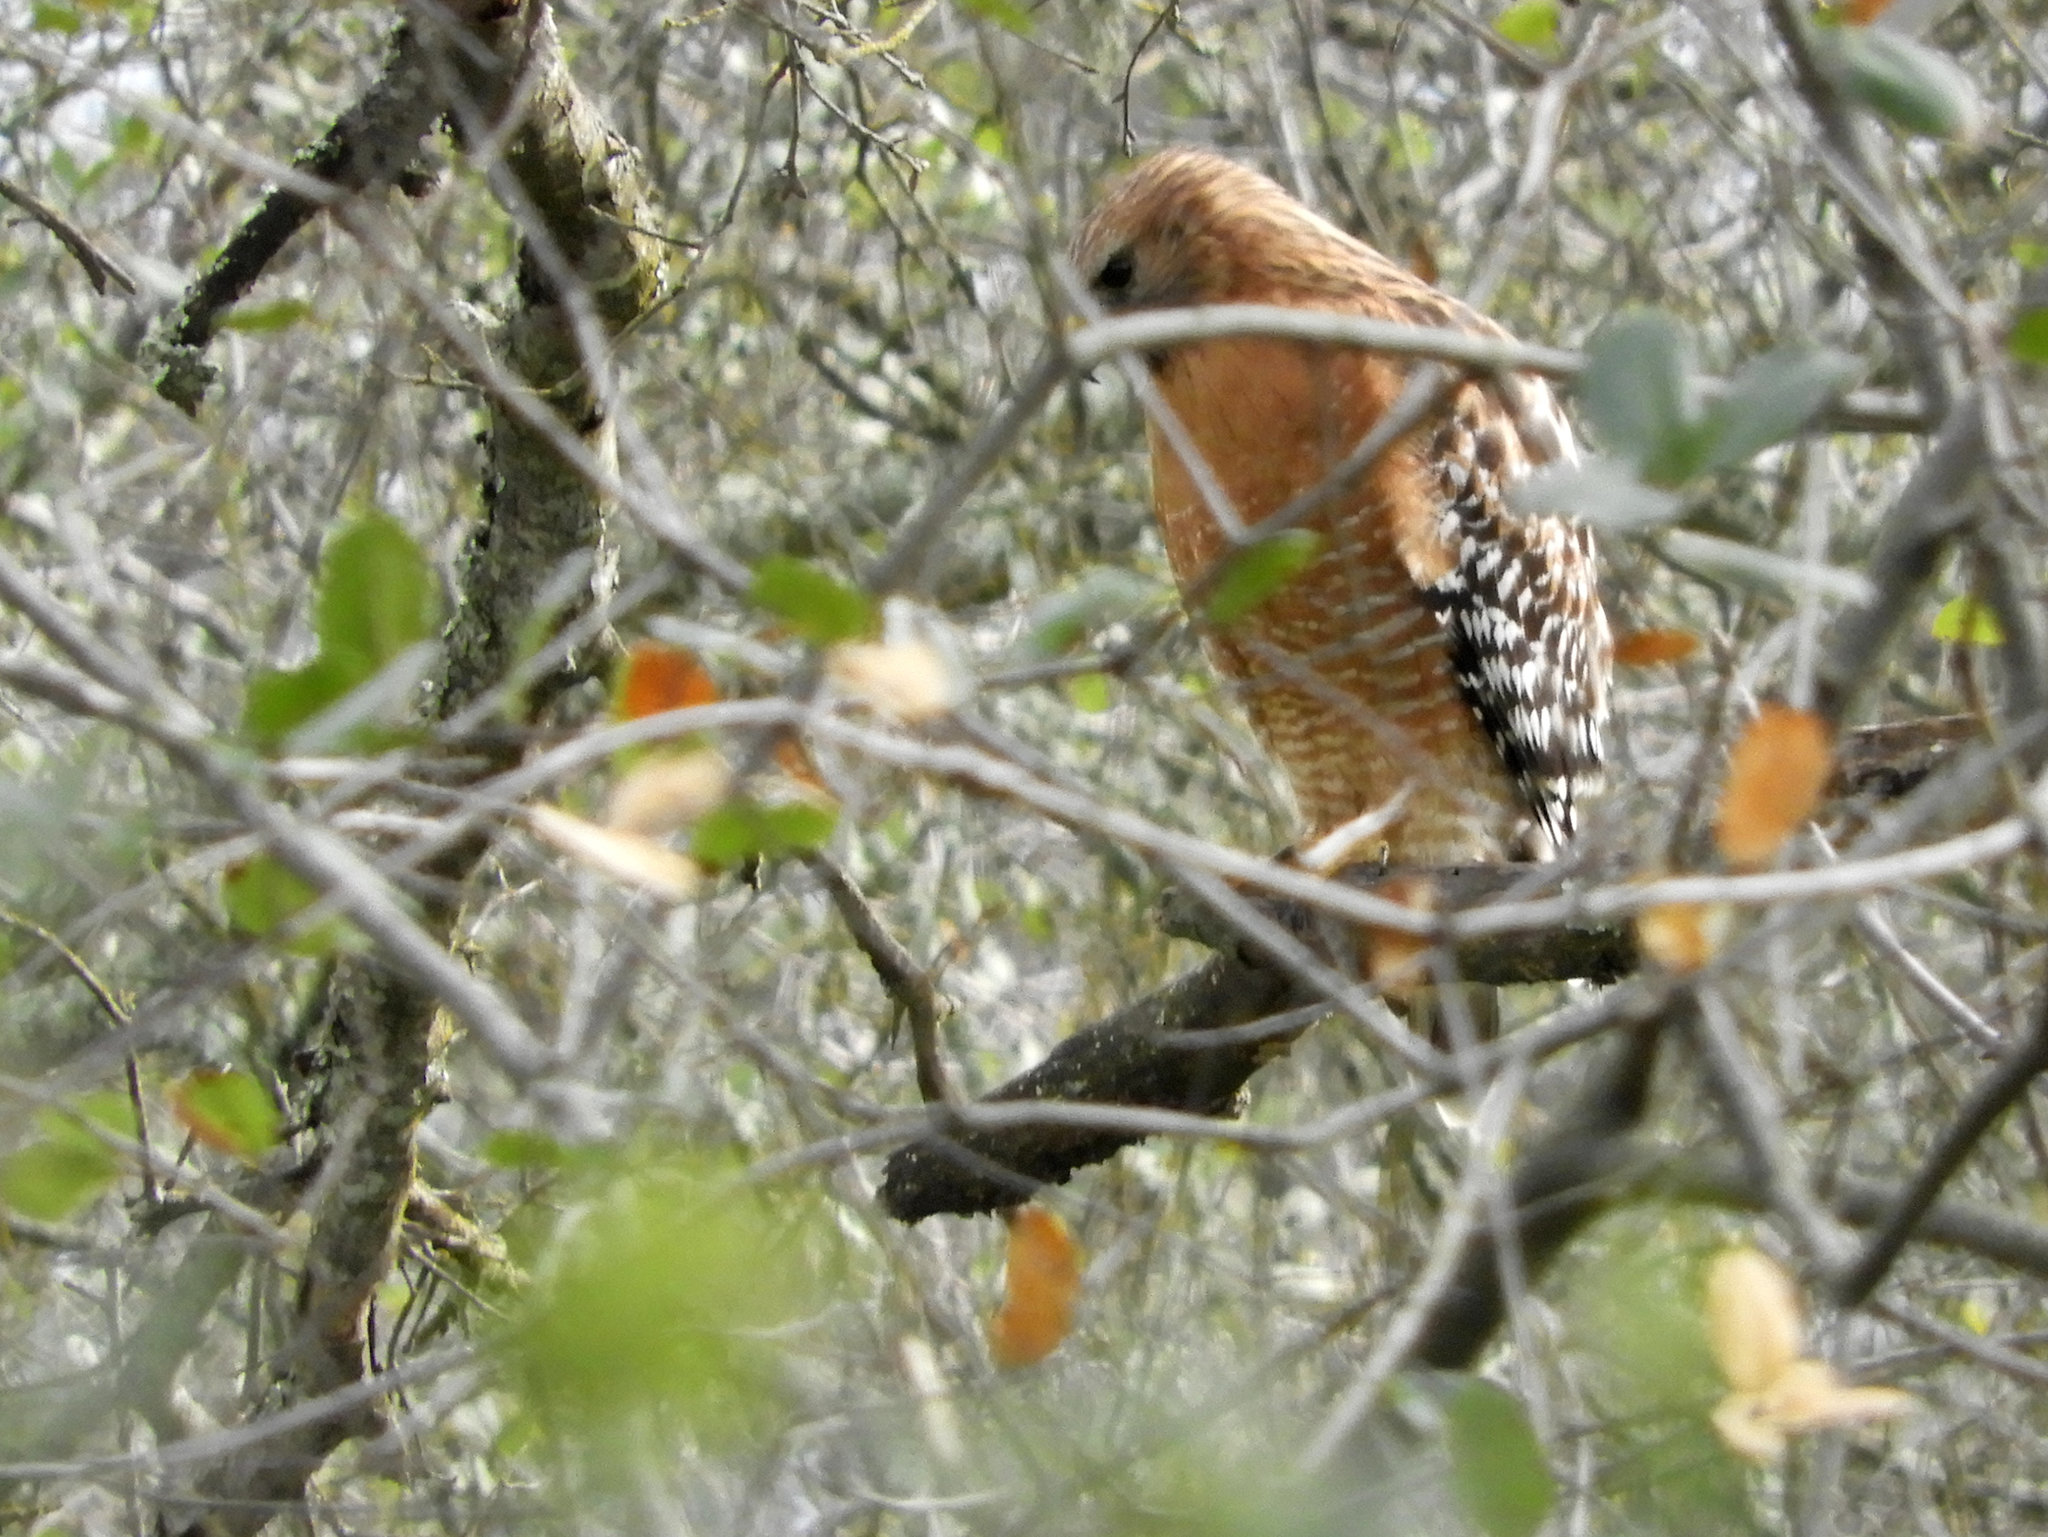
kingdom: Animalia
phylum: Chordata
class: Aves
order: Accipitriformes
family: Accipitridae
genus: Buteo
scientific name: Buteo lineatus
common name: Red-shouldered hawk
